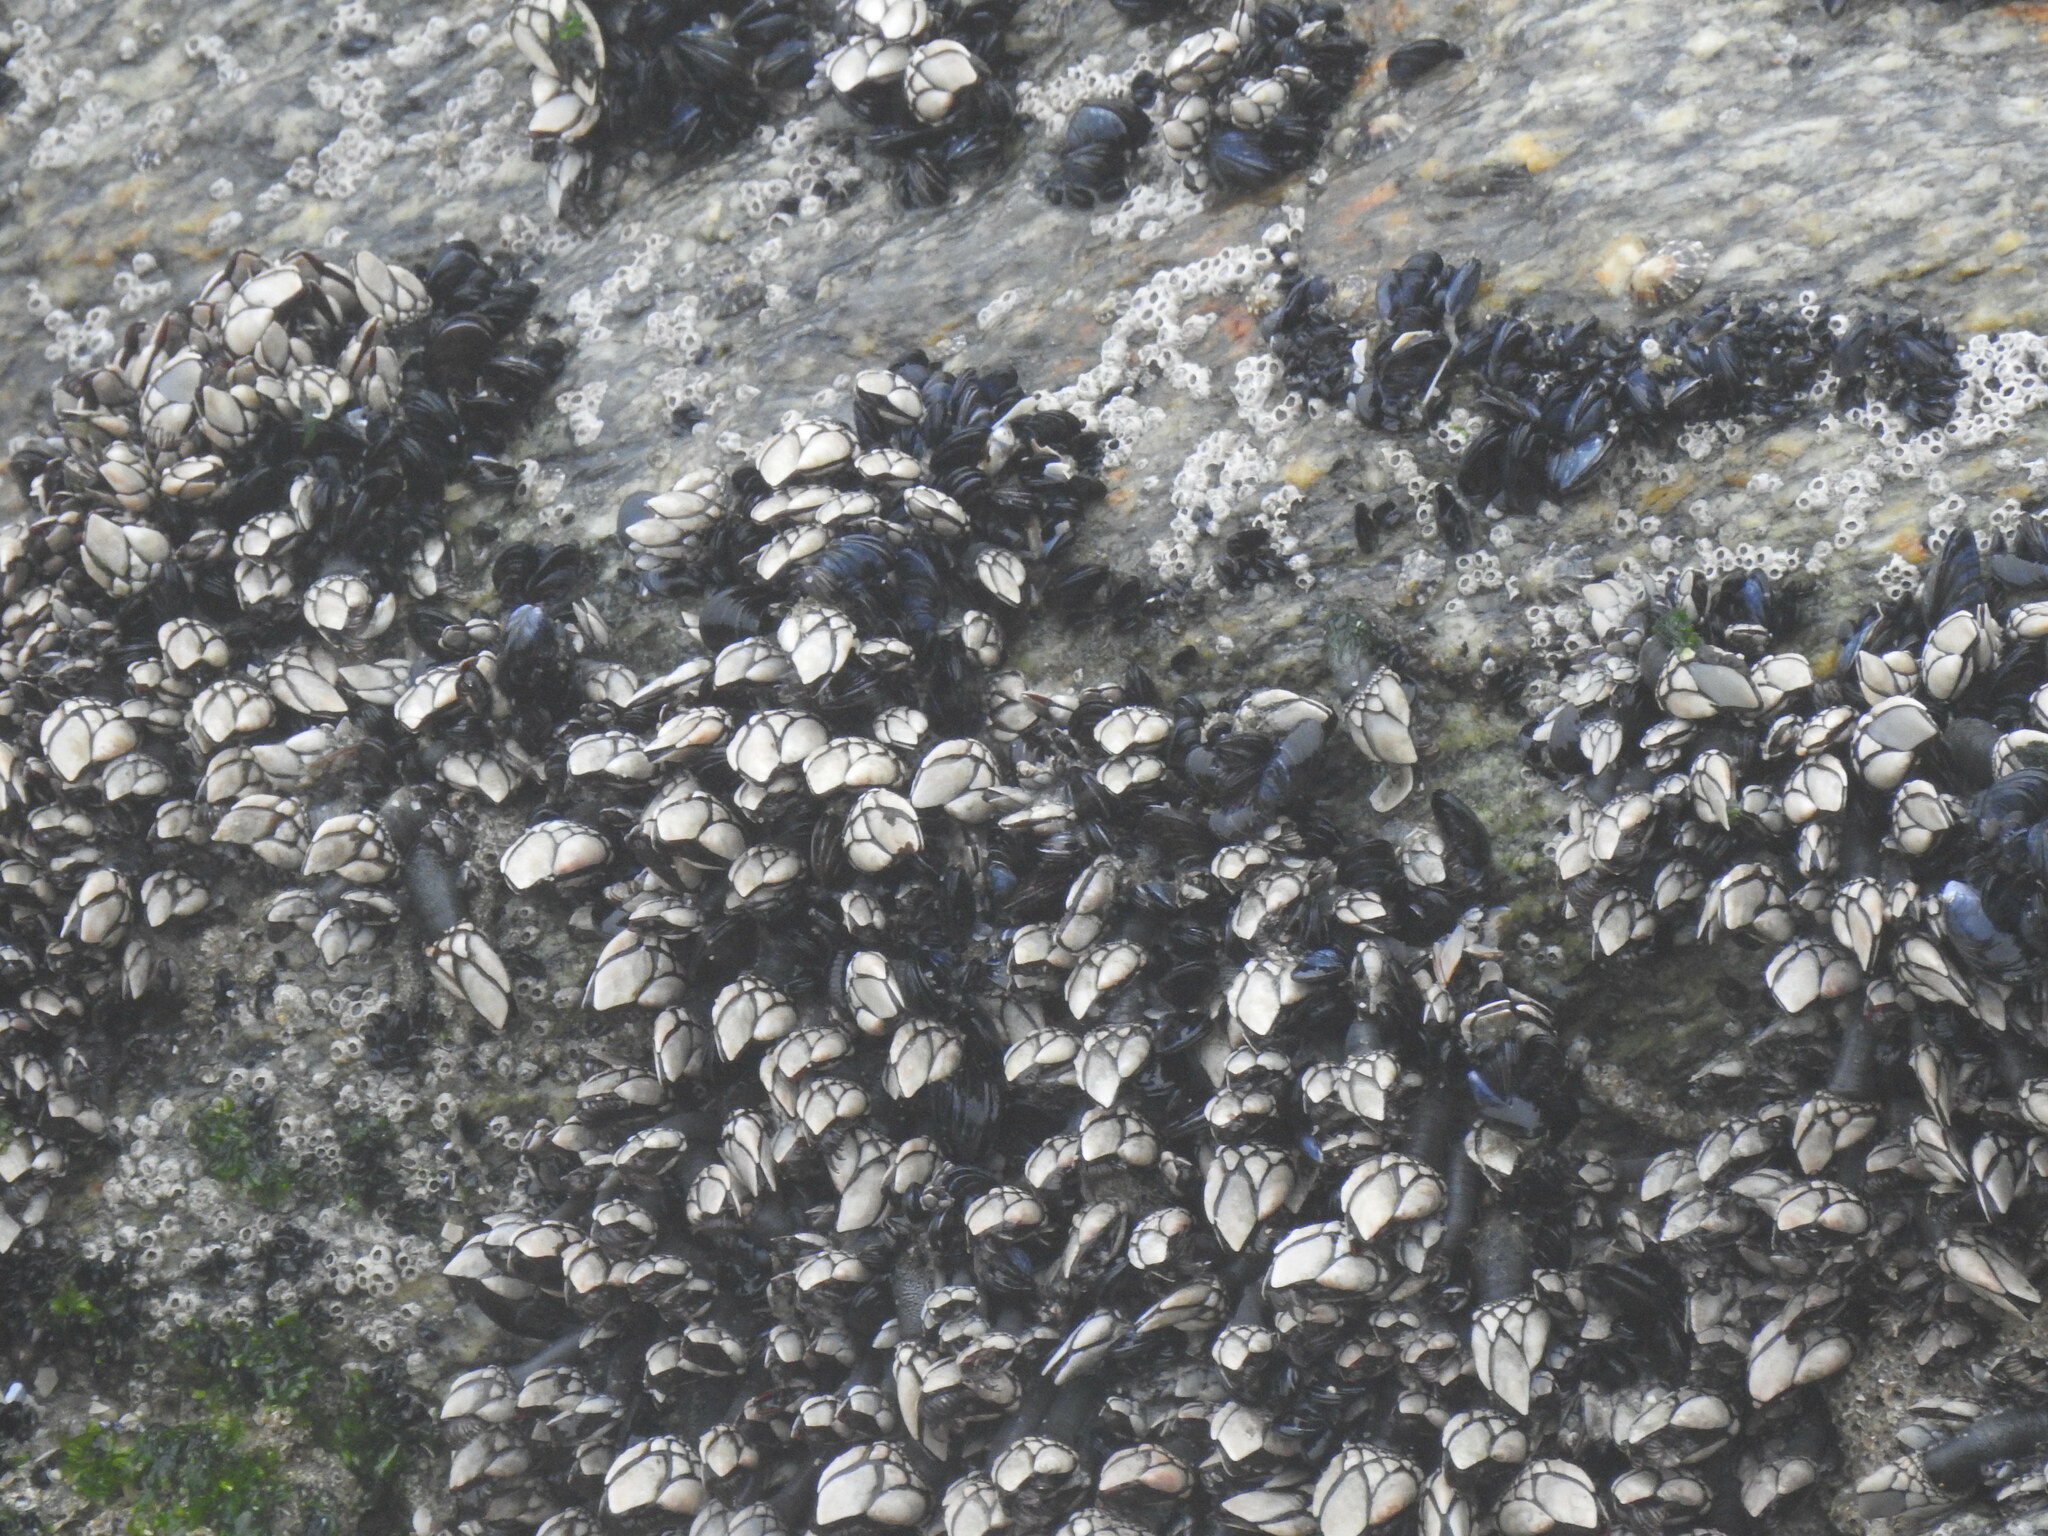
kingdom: Animalia
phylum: Arthropoda
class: Maxillopoda
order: Pedunculata
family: Pollicipedidae
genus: Pollicipes
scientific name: Pollicipes pollicipes
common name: Gooseneck barnacle
